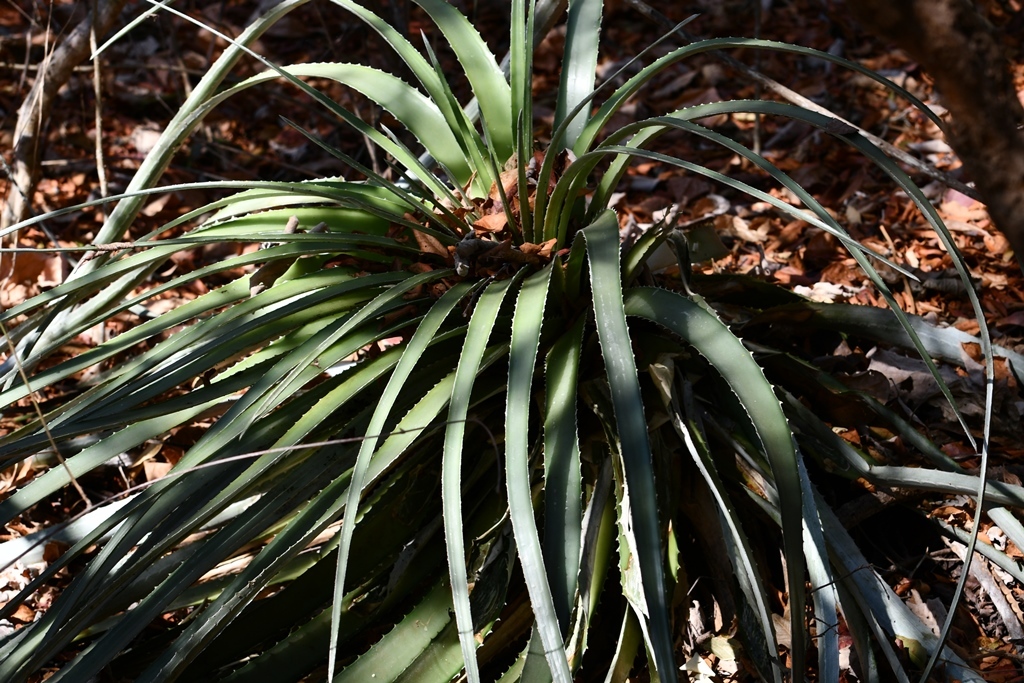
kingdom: Plantae
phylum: Tracheophyta
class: Liliopsida
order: Poales
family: Bromeliaceae
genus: Hechtia
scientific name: Hechtia glomerata
